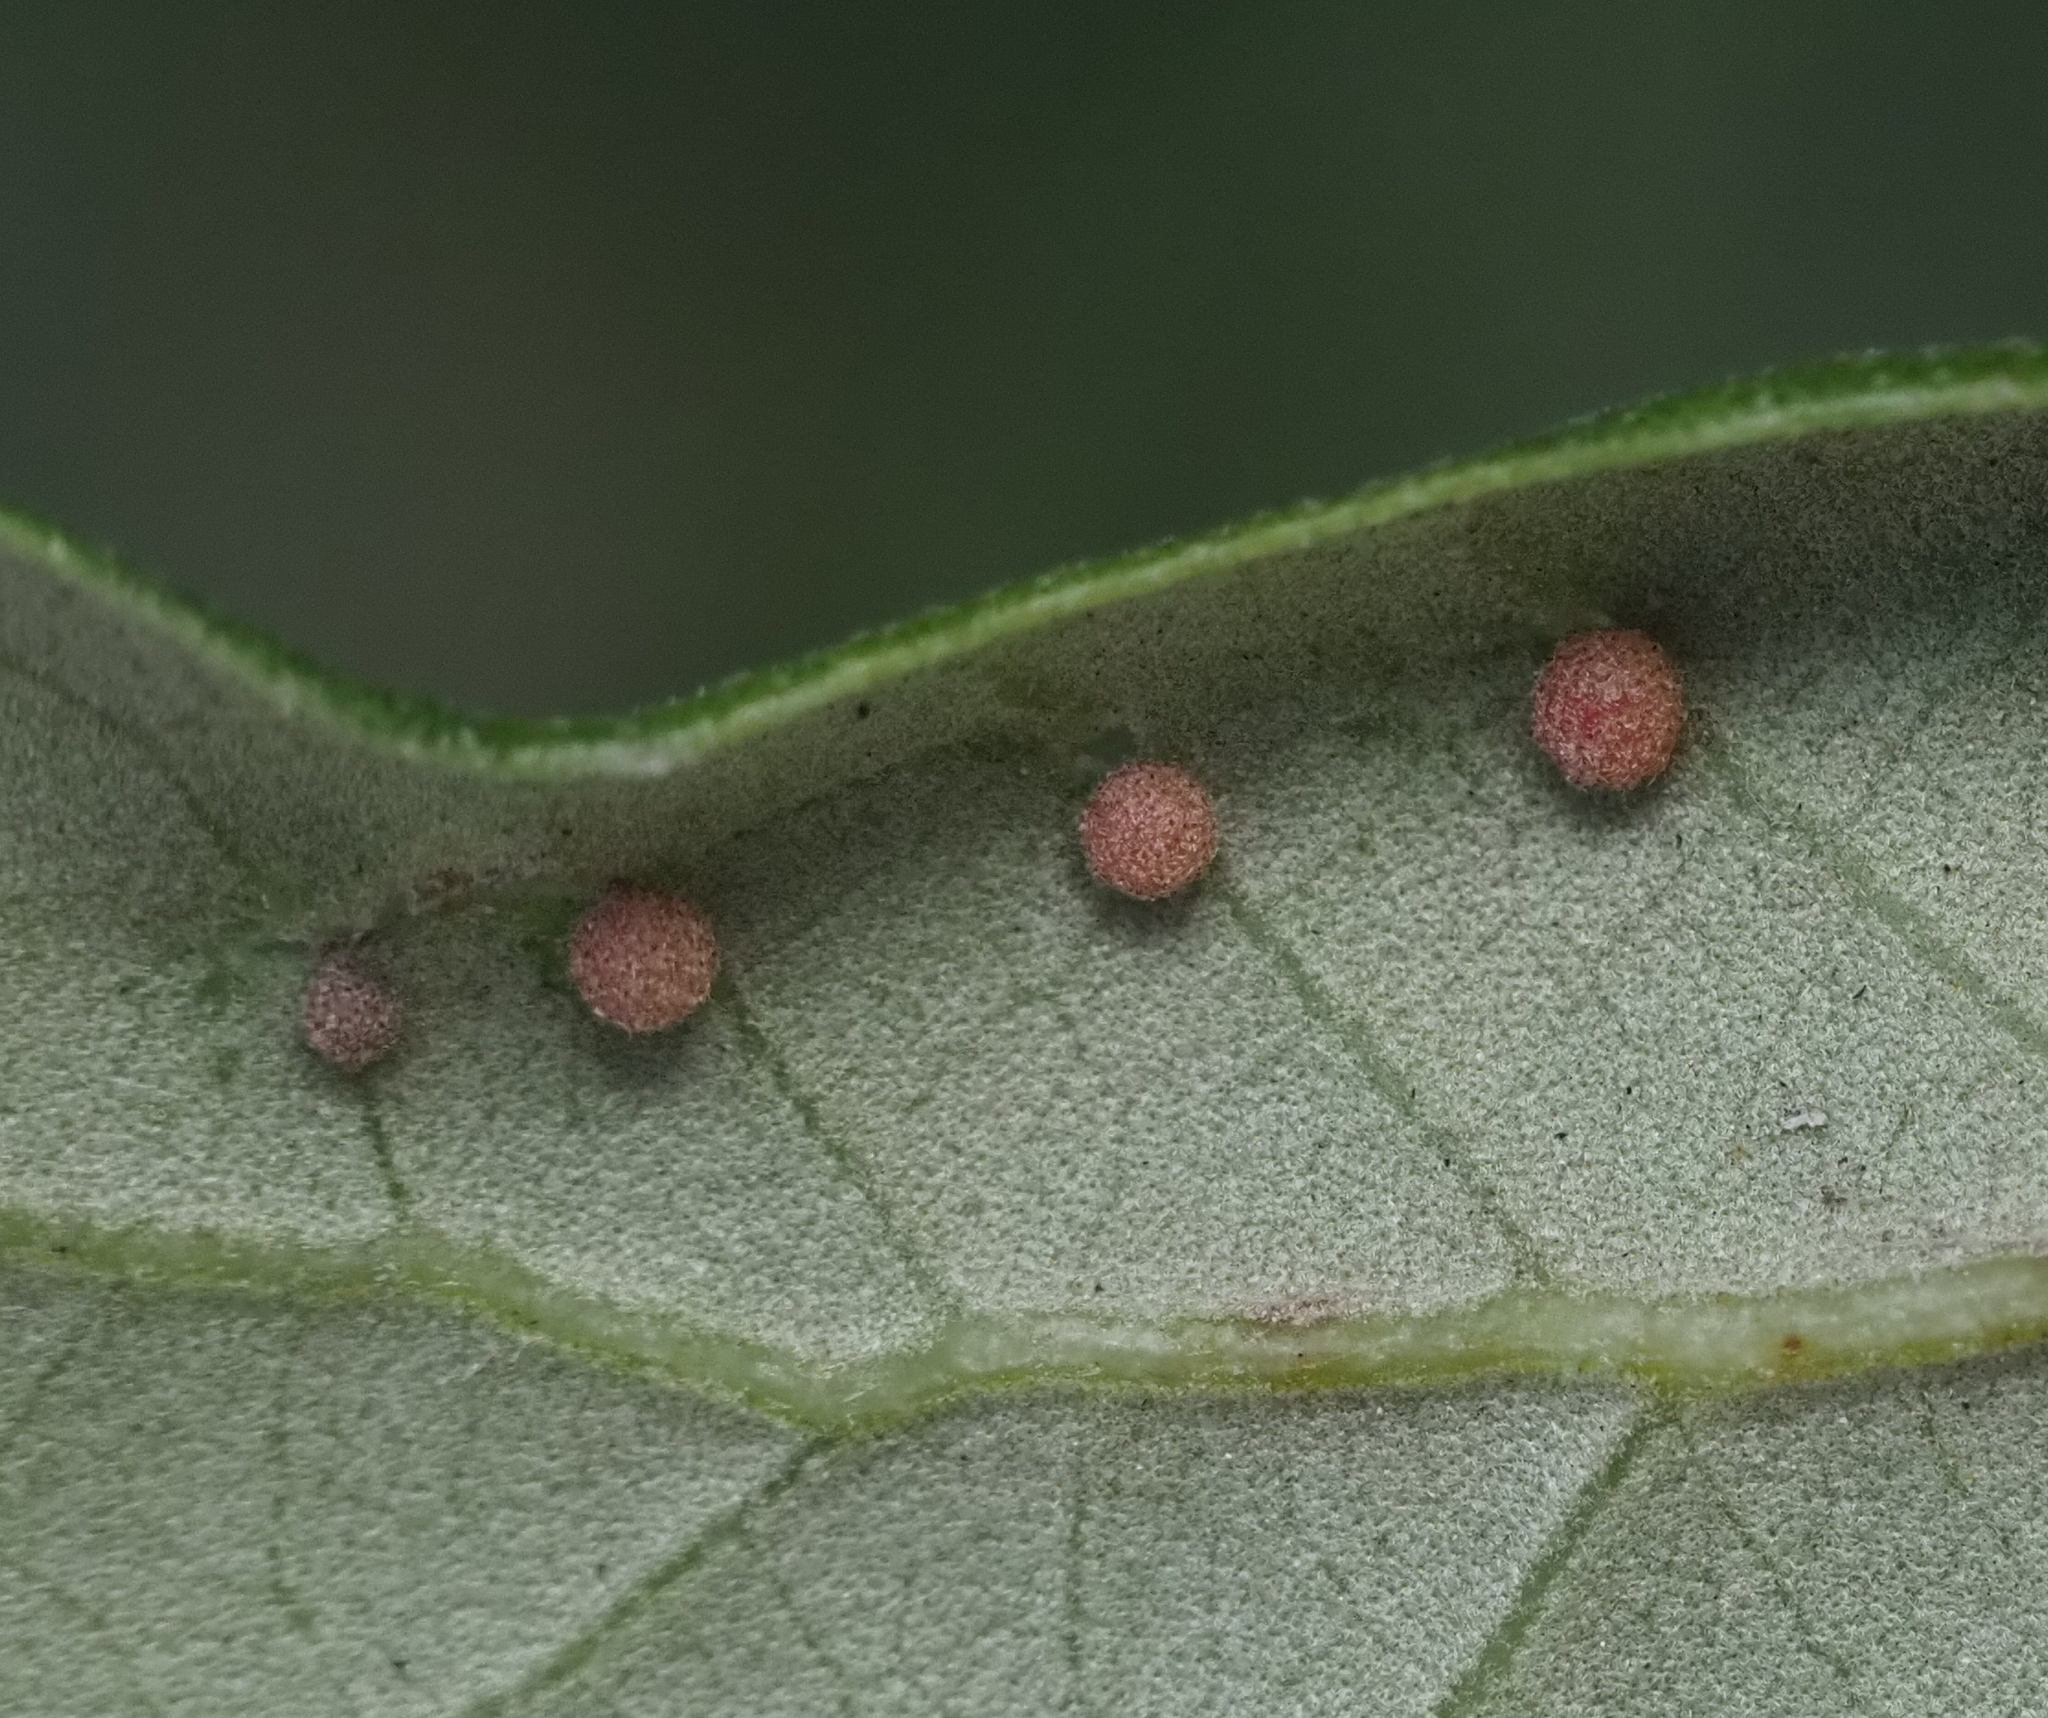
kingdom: Animalia
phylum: Arthropoda
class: Insecta
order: Hymenoptera
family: Cynipidae
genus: Belonocnema
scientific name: Belonocnema kinseyi
